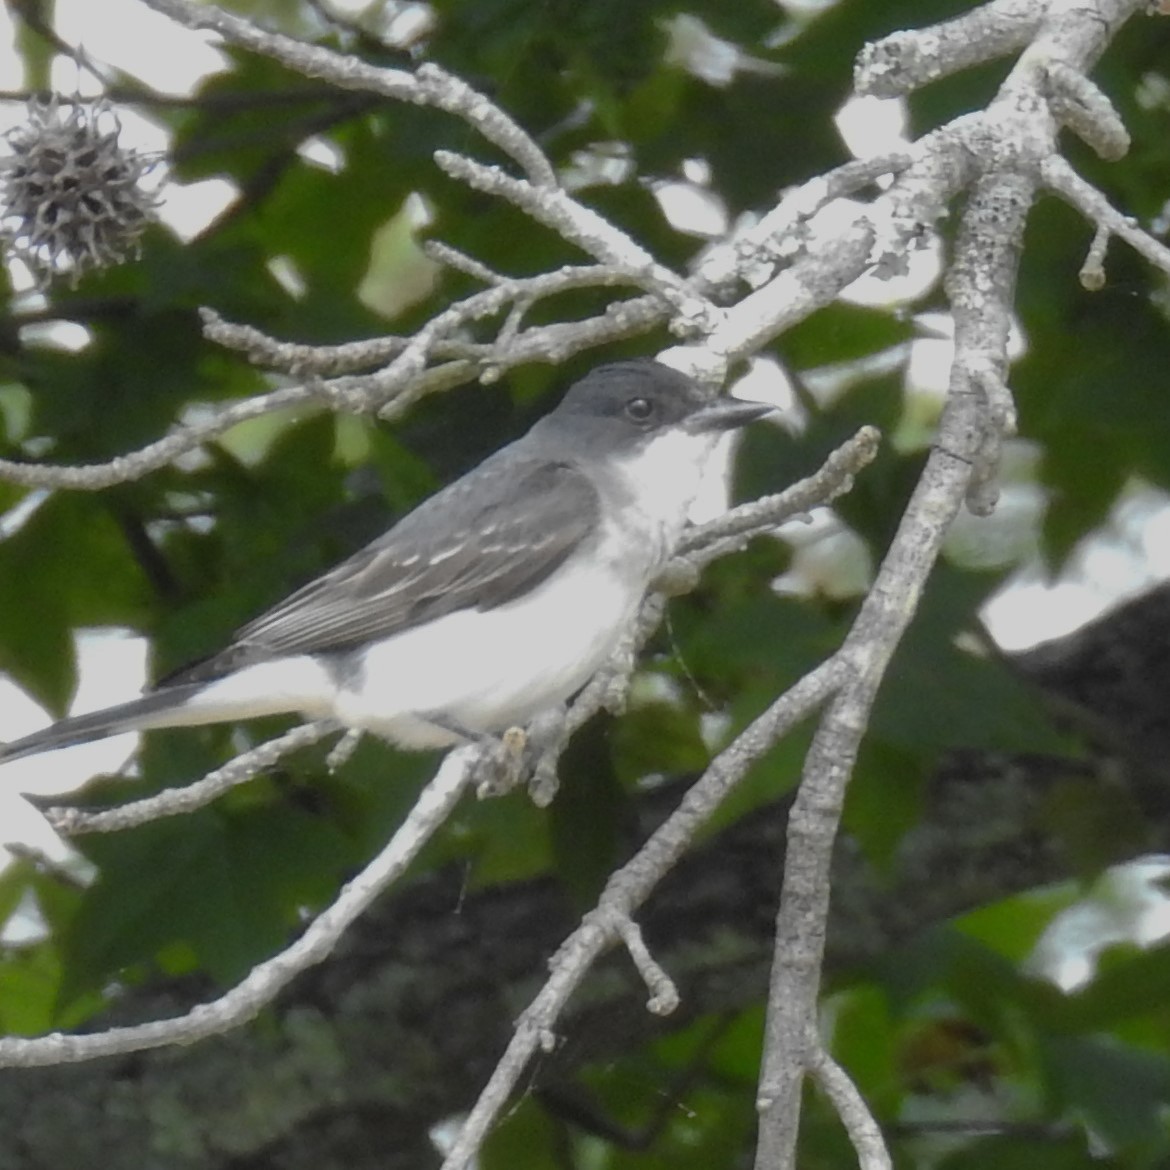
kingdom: Animalia
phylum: Chordata
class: Aves
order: Passeriformes
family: Tyrannidae
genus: Tyrannus
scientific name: Tyrannus tyrannus
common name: Eastern kingbird
